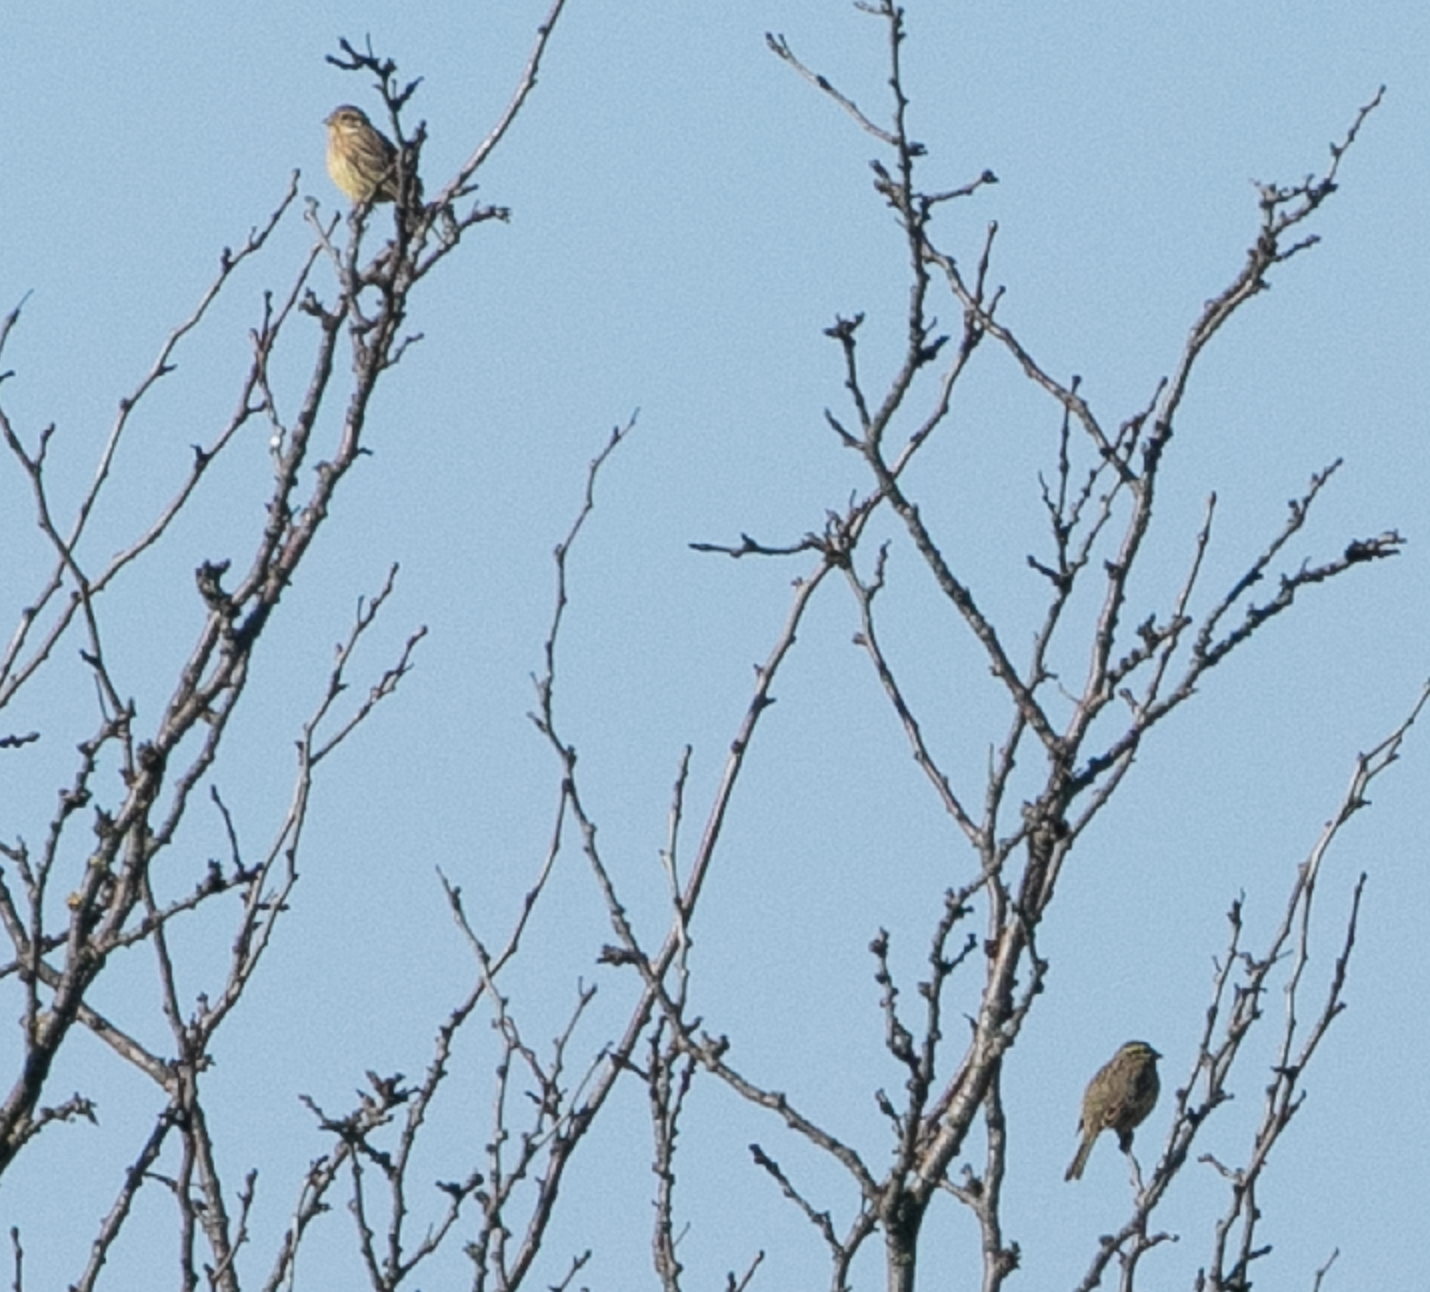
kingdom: Animalia
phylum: Chordata
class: Aves
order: Passeriformes
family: Emberizidae
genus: Emberiza
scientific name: Emberiza cirlus
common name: Cirl bunting
